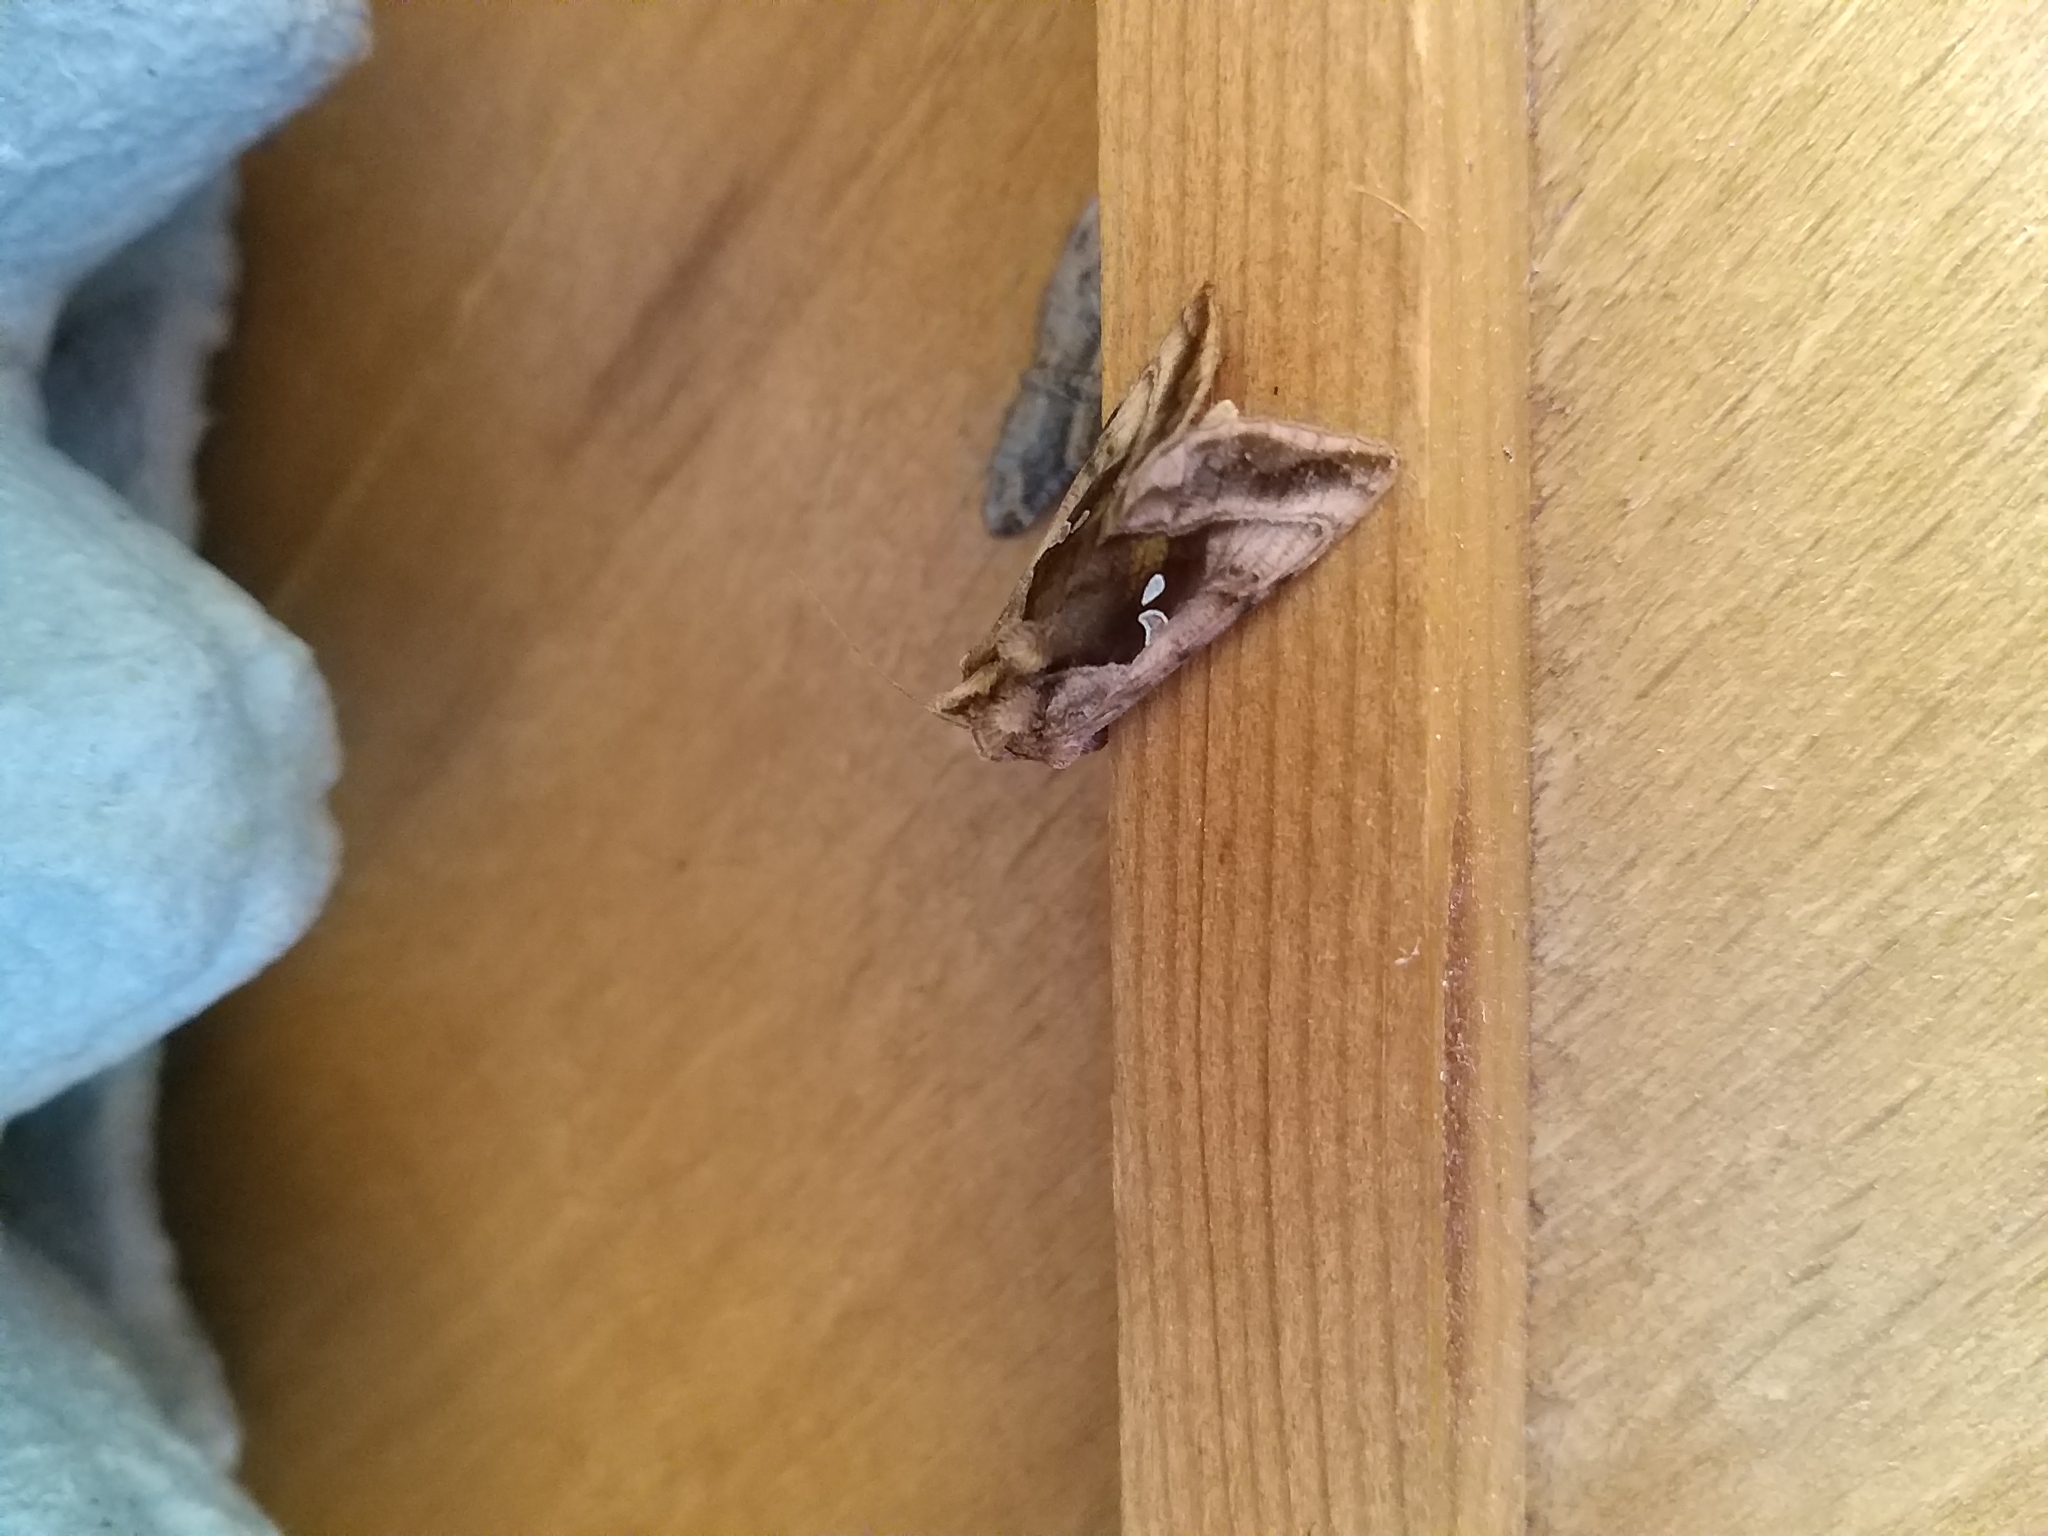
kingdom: Animalia
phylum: Arthropoda
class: Insecta
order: Lepidoptera
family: Noctuidae
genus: Autographa
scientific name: Autographa jota
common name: Plain golden y
